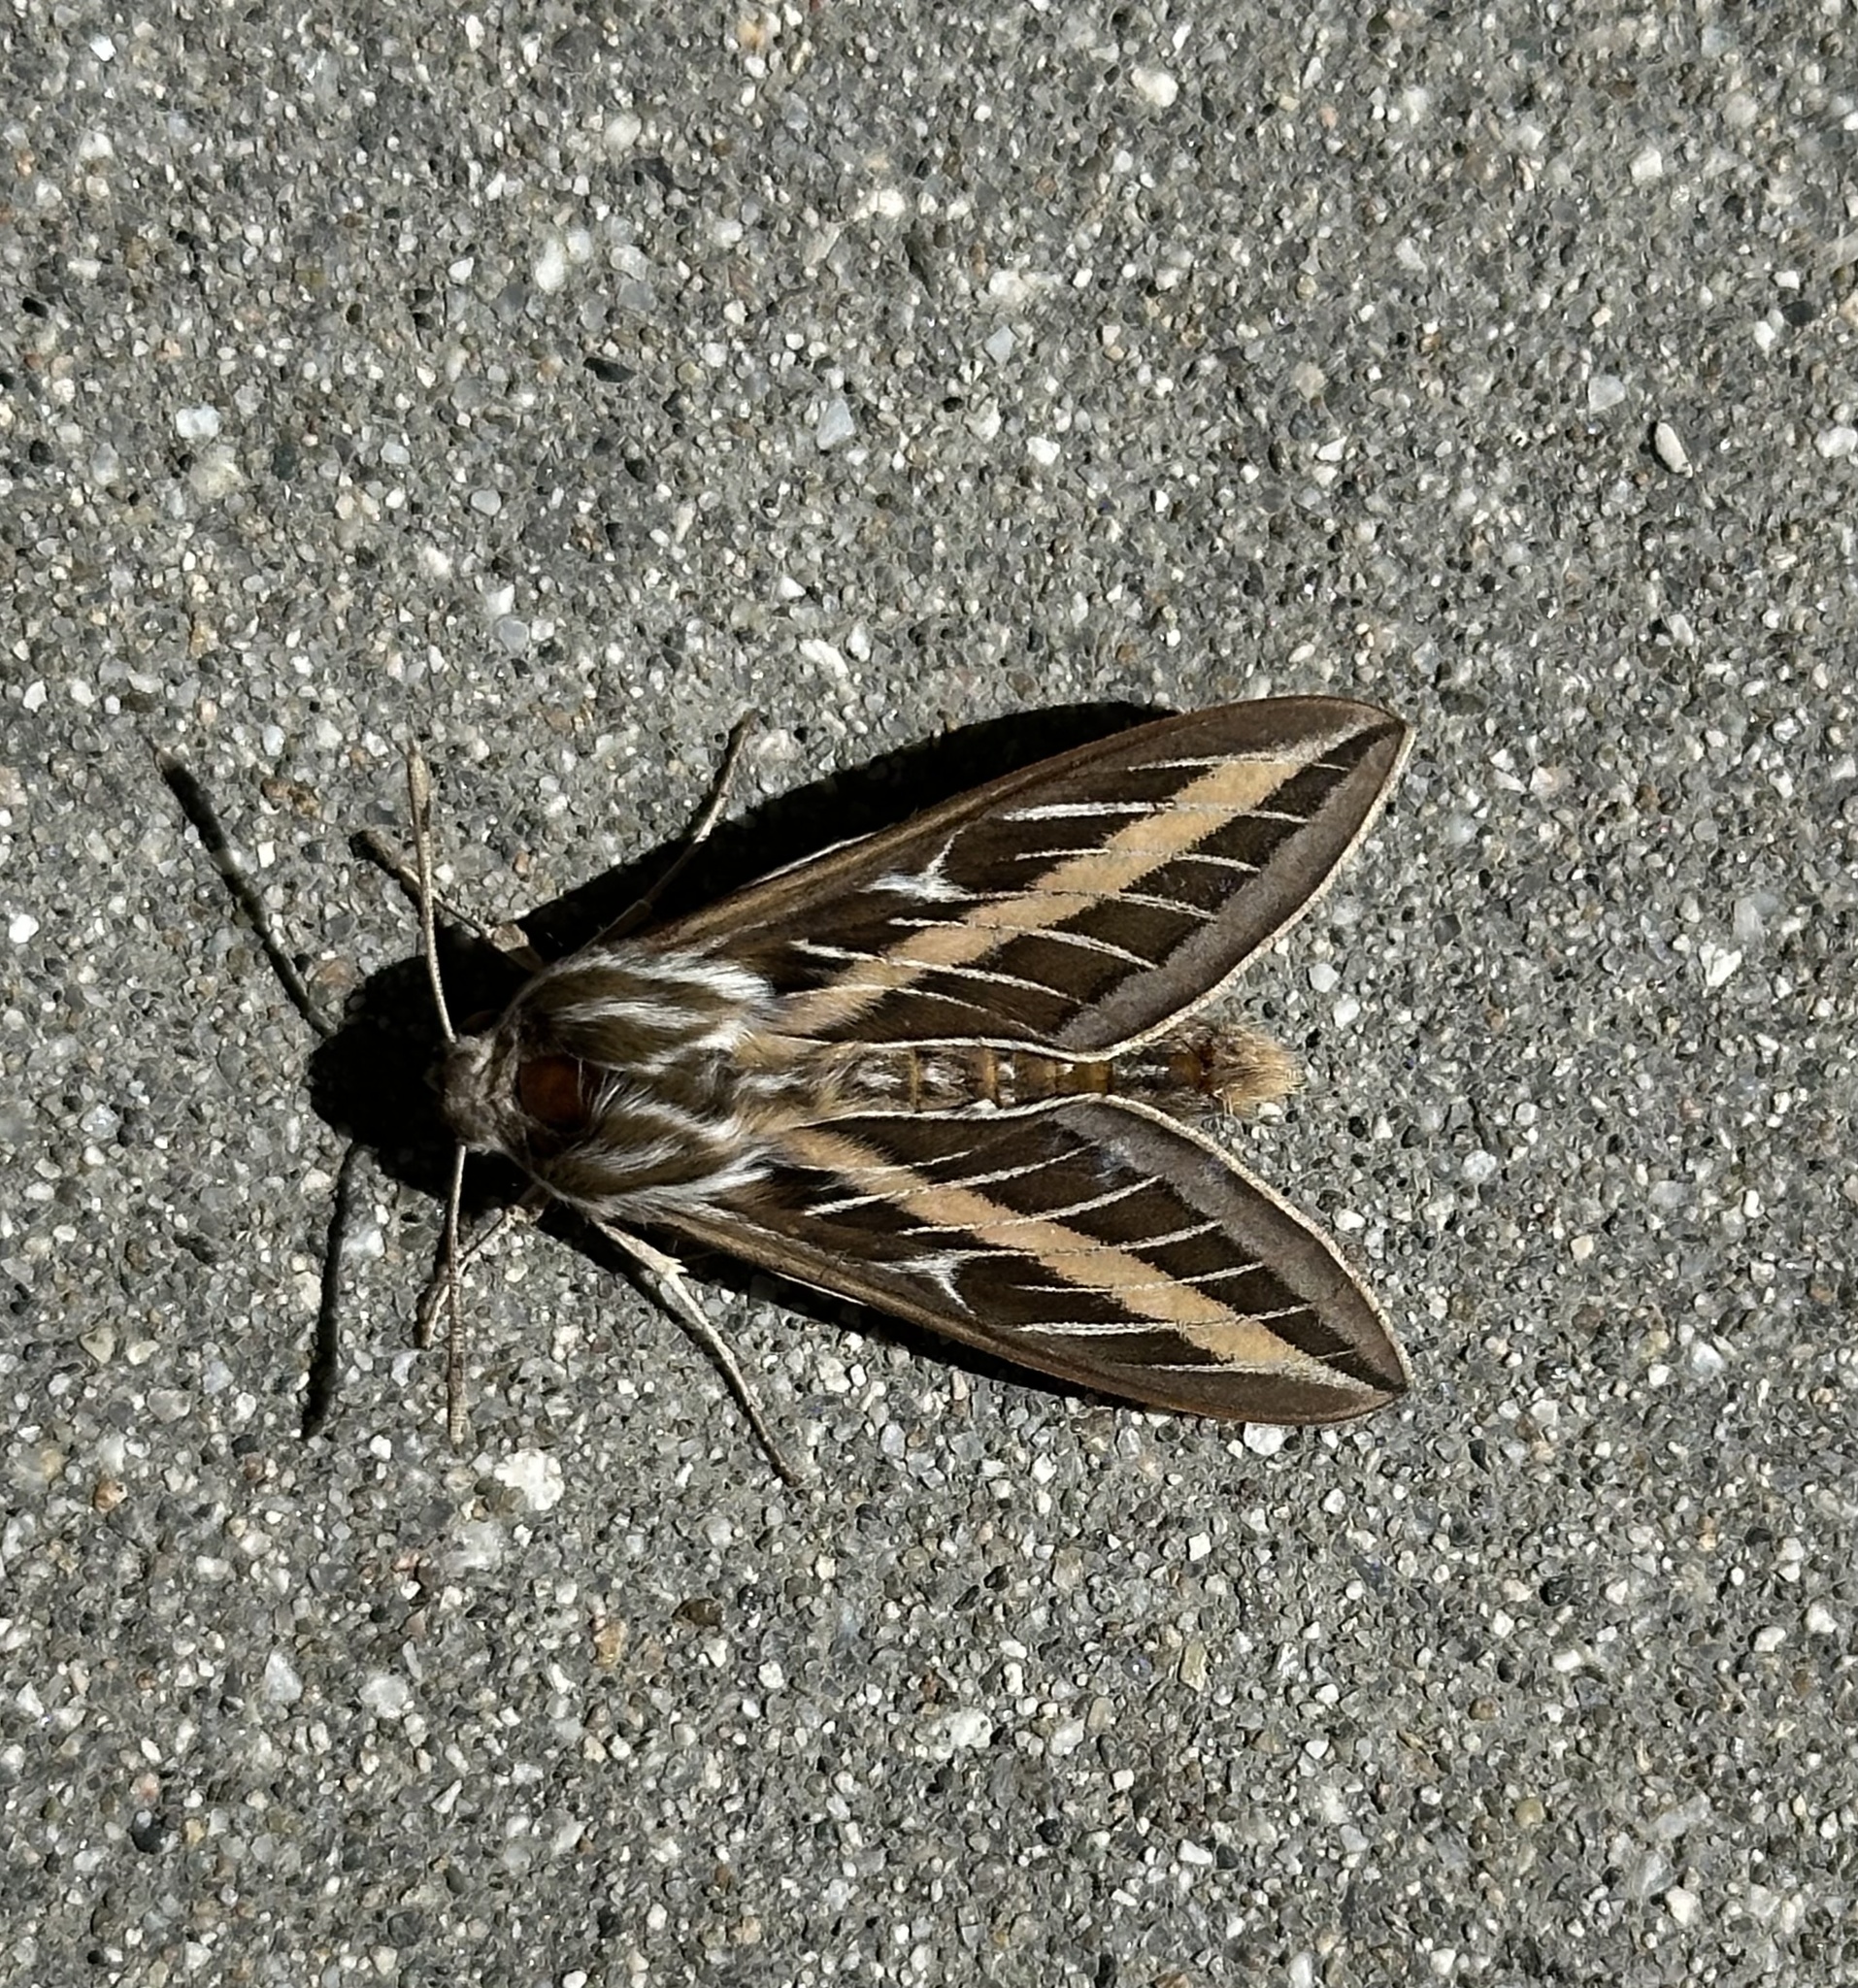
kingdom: Animalia
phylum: Arthropoda
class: Insecta
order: Lepidoptera
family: Sphingidae
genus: Hyles
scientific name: Hyles lineata
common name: White-lined sphinx
